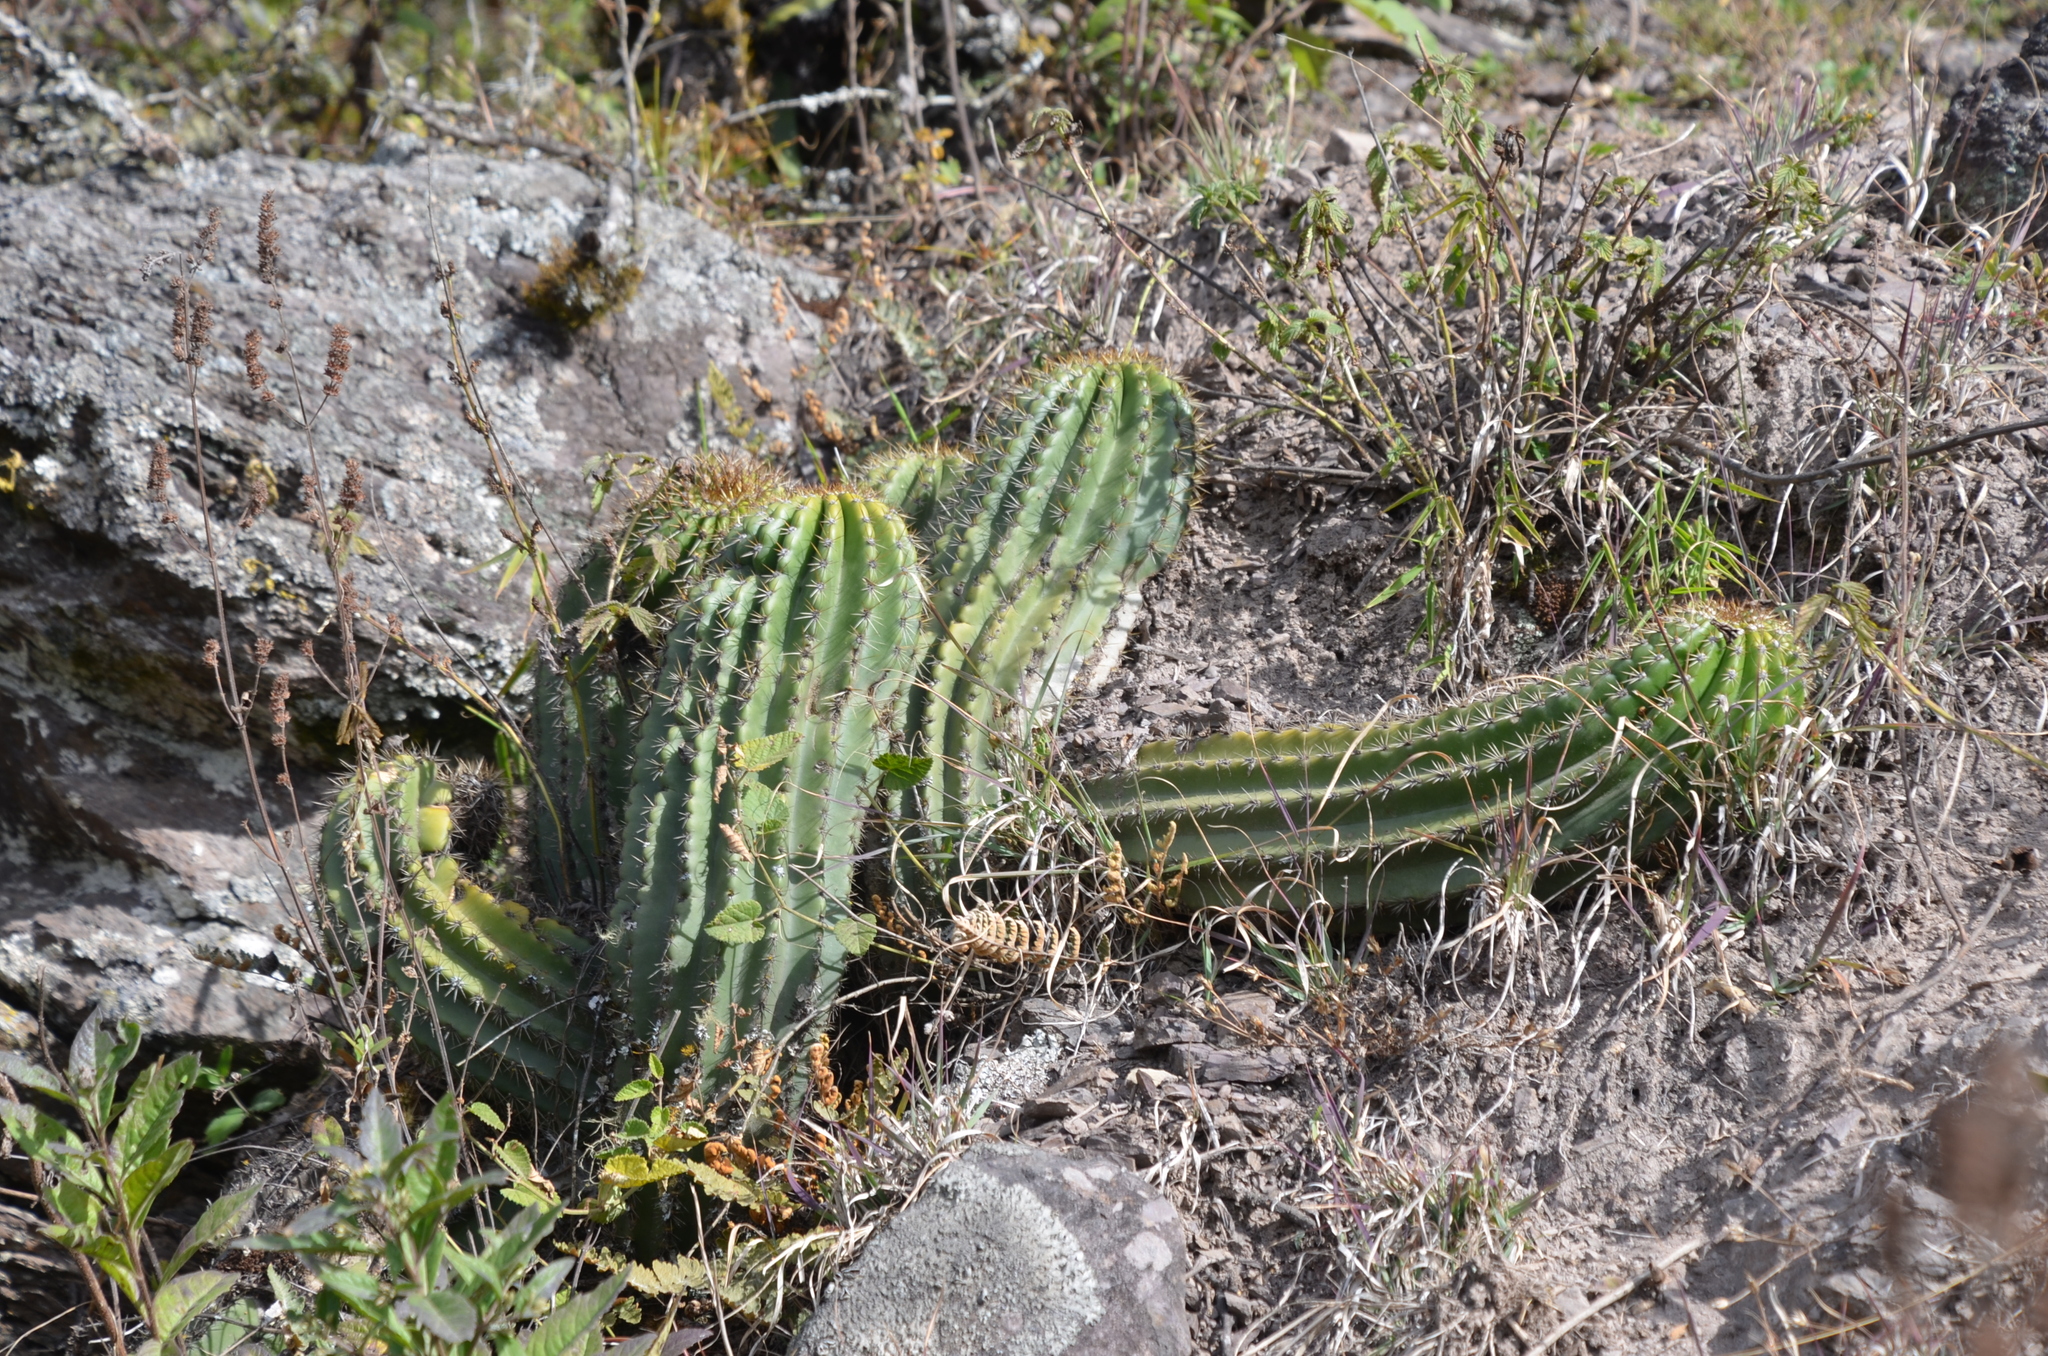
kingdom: Plantae
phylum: Tracheophyta
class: Magnoliopsida
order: Caryophyllales
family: Cactaceae
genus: Soehrensia
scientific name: Soehrensia schickendantzii
